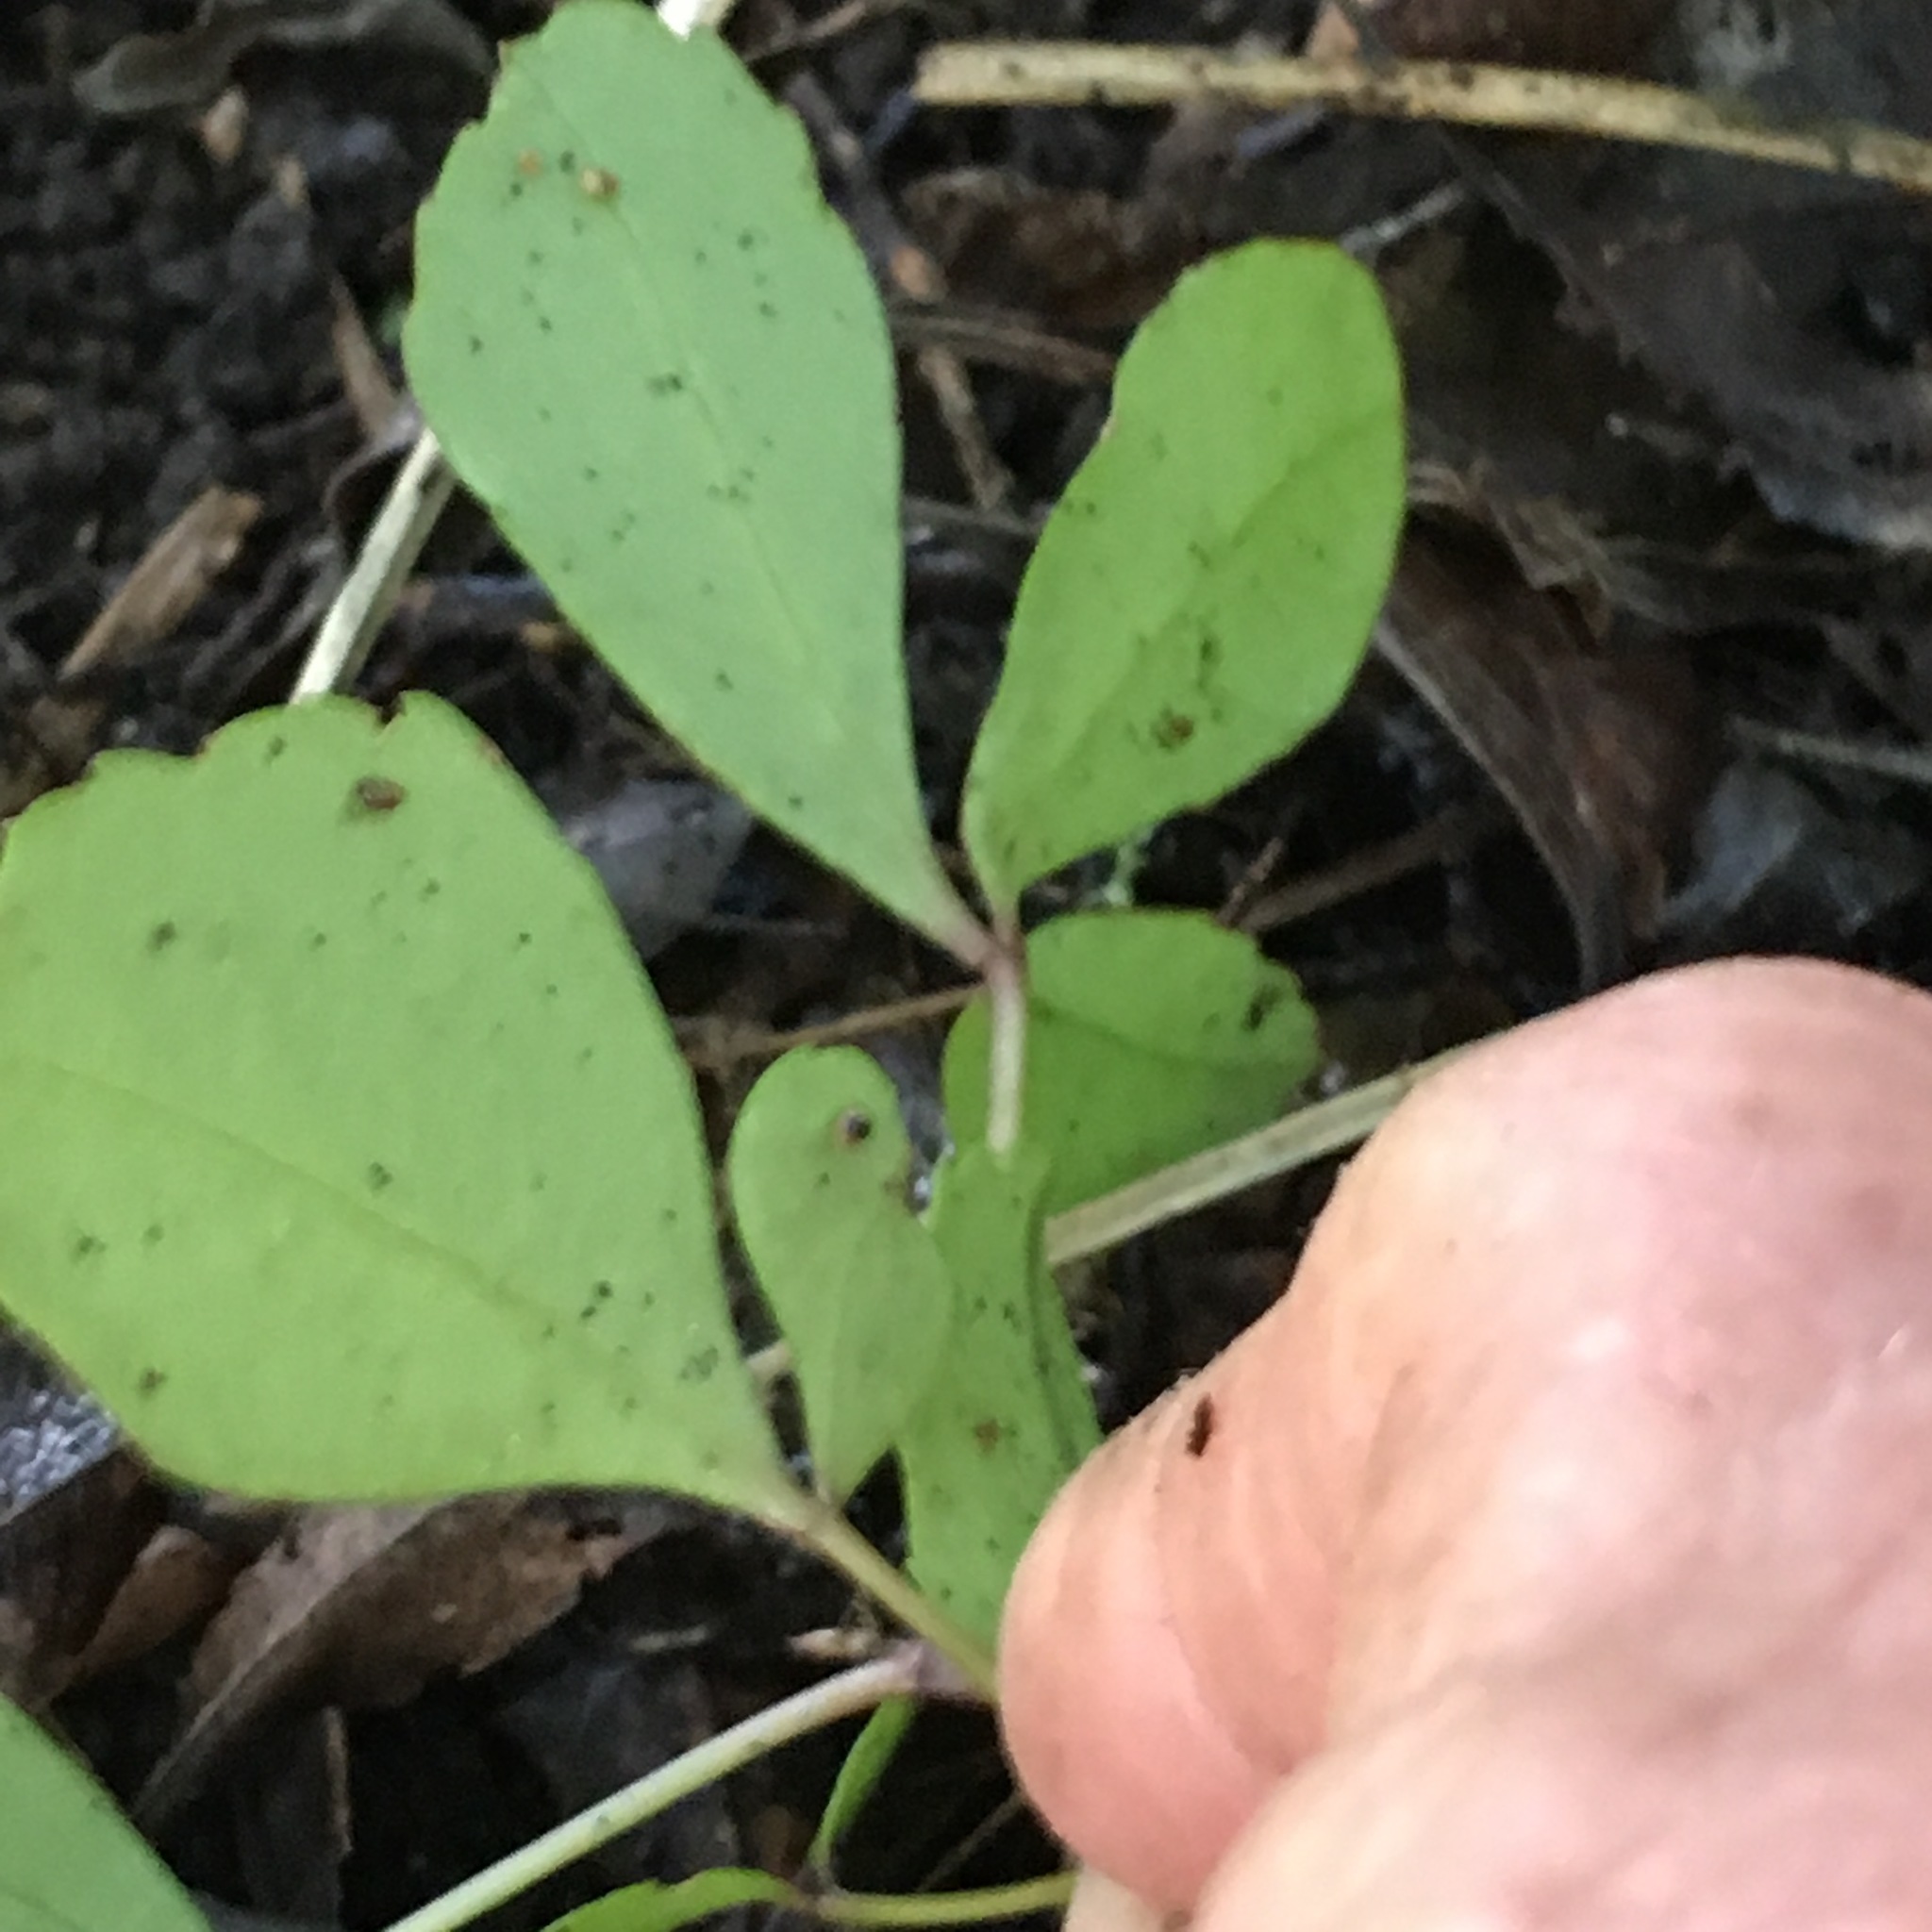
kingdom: Plantae
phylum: Tracheophyta
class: Magnoliopsida
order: Apiales
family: Araliaceae
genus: Pseudopanax
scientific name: Pseudopanax lessonii
